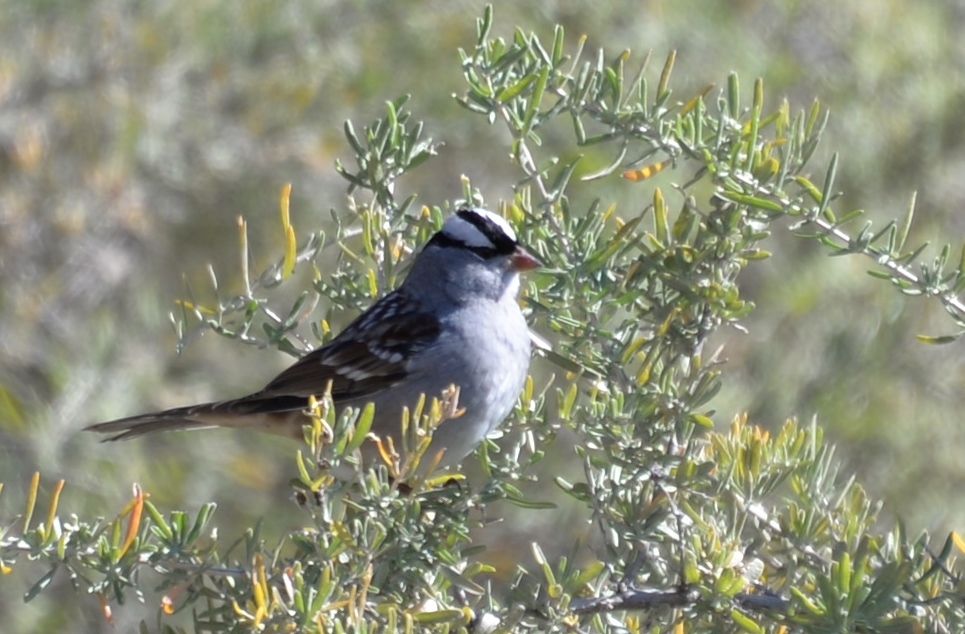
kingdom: Animalia
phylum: Chordata
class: Aves
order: Passeriformes
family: Passerellidae
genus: Zonotrichia
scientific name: Zonotrichia leucophrys
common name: White-crowned sparrow
